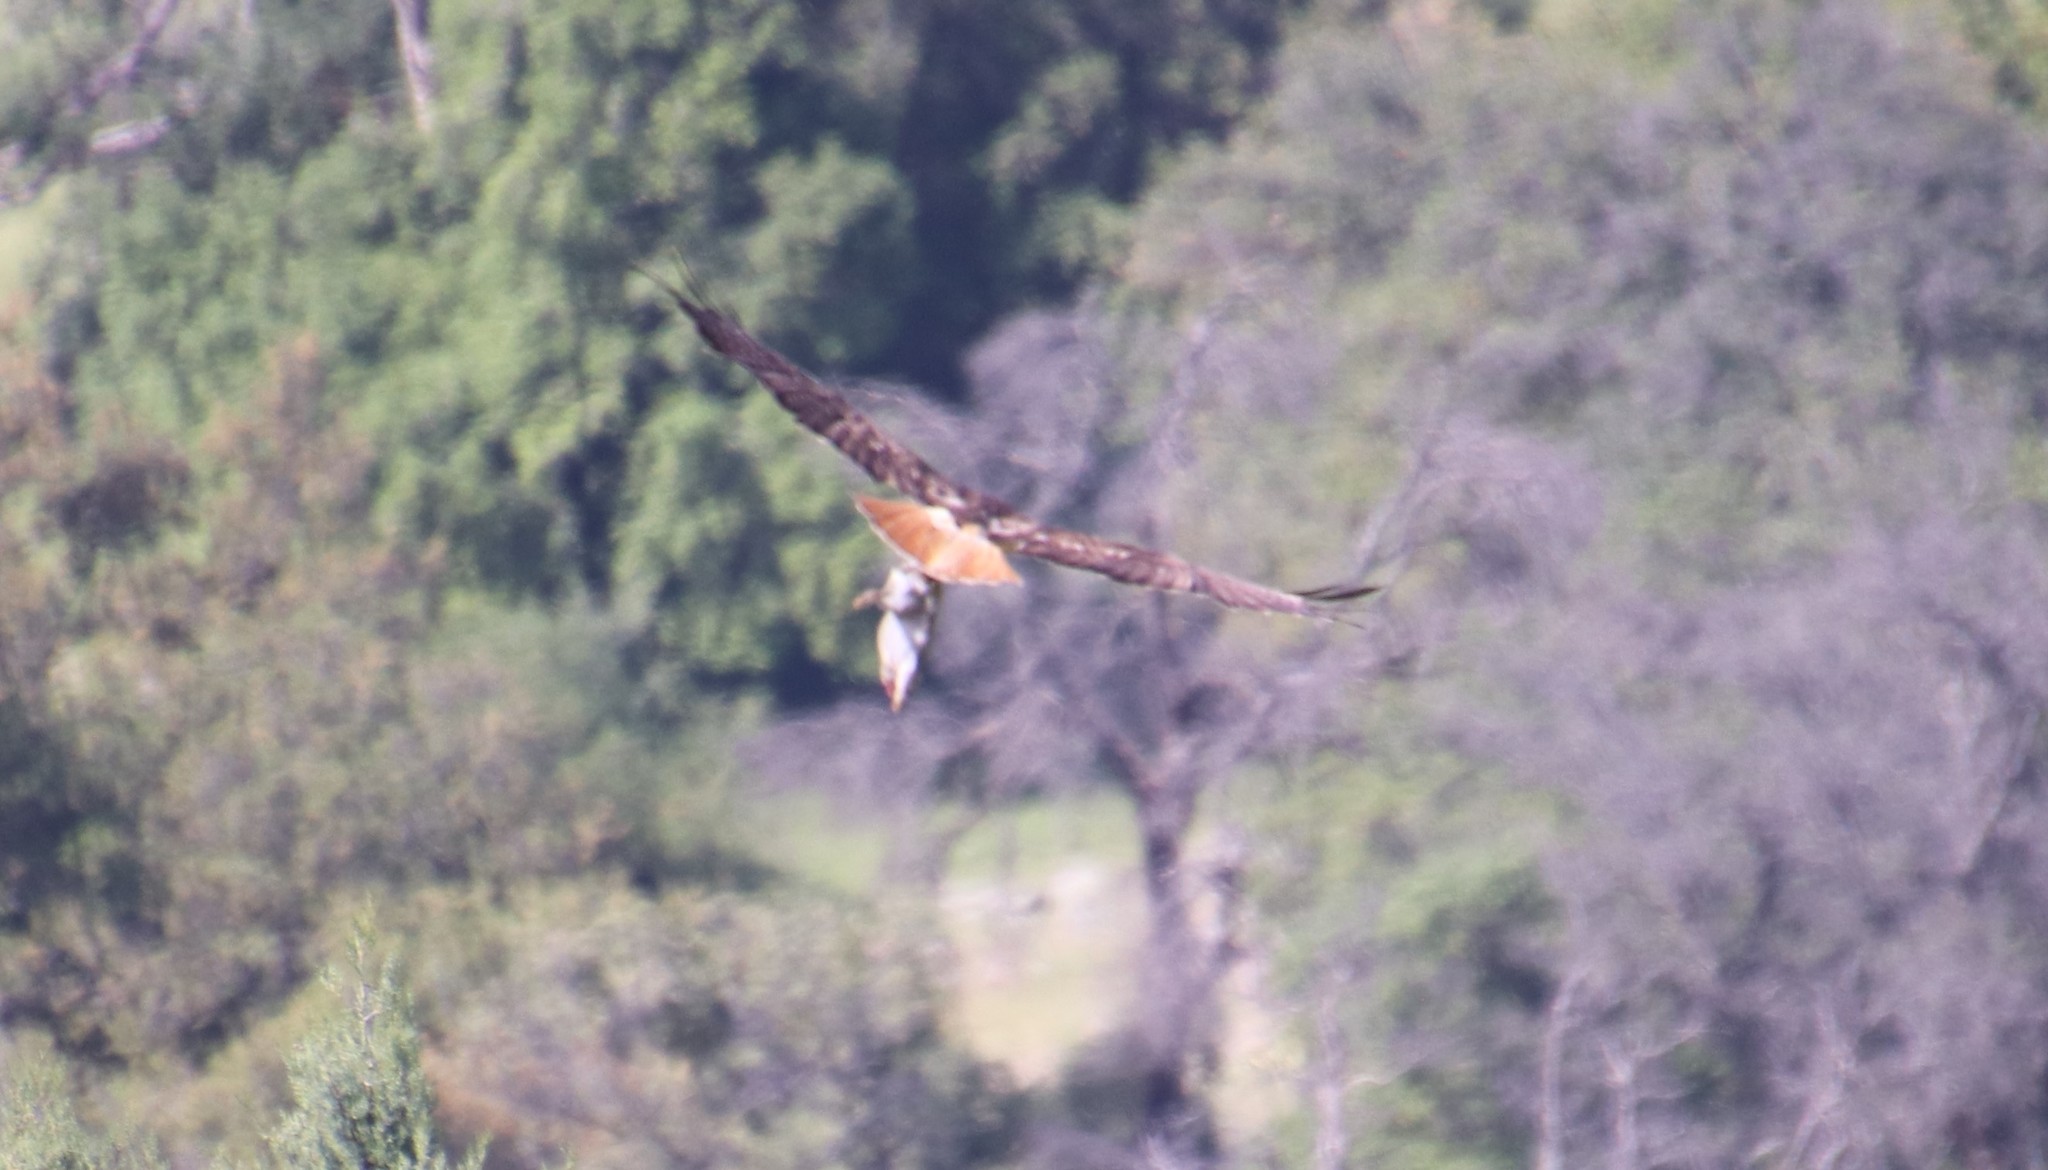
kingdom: Animalia
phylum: Chordata
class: Aves
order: Accipitriformes
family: Accipitridae
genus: Buteo
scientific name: Buteo jamaicensis
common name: Red-tailed hawk
